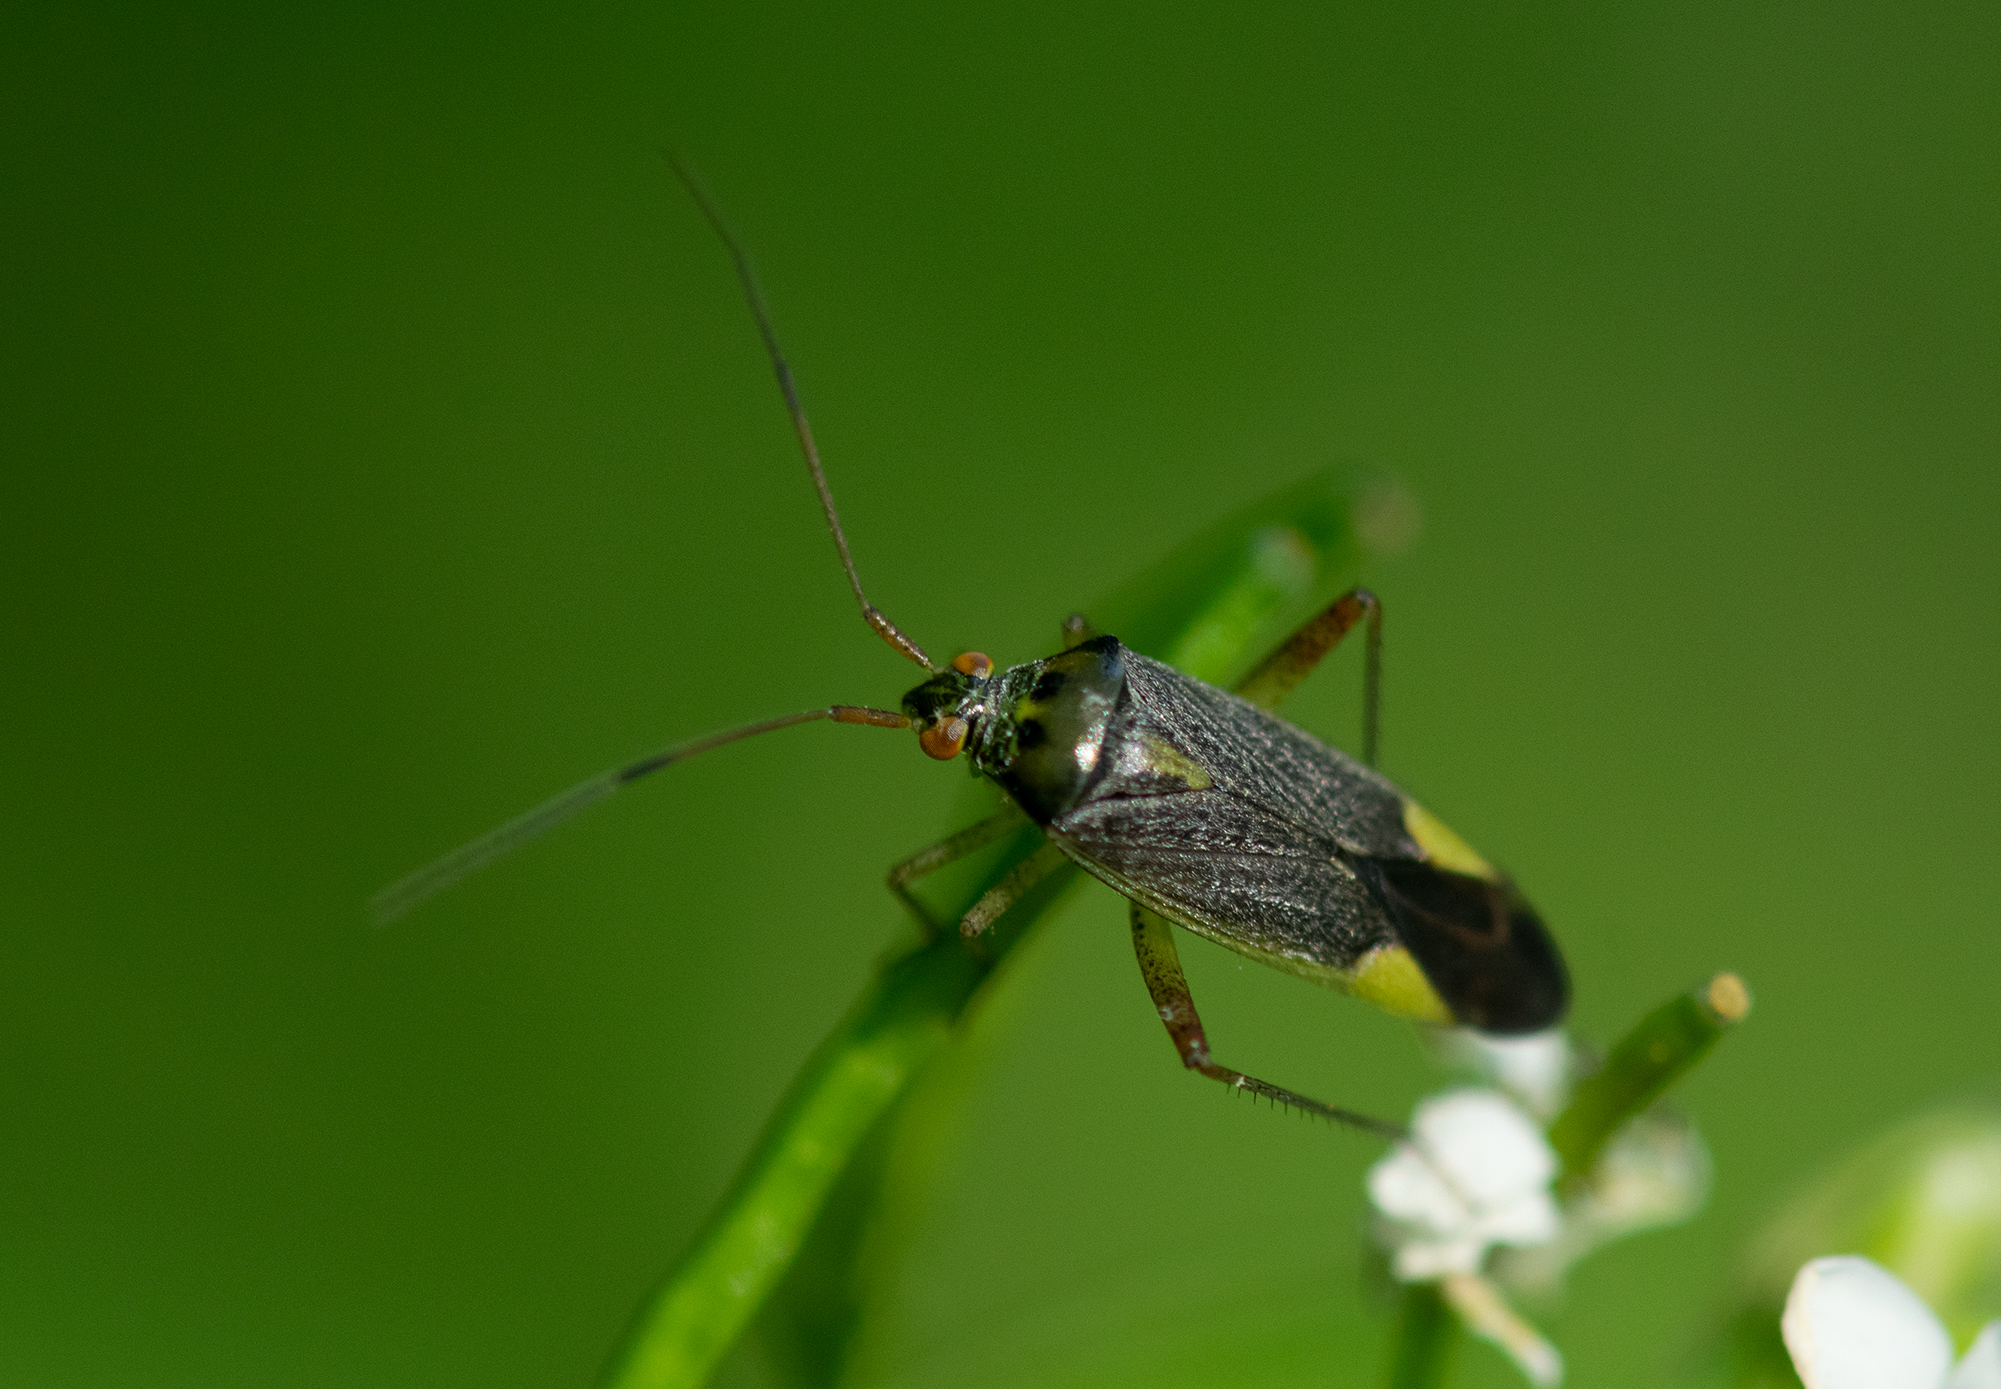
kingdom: Animalia
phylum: Arthropoda
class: Insecta
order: Hemiptera
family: Miridae
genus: Closterotomus
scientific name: Closterotomus trivialis
